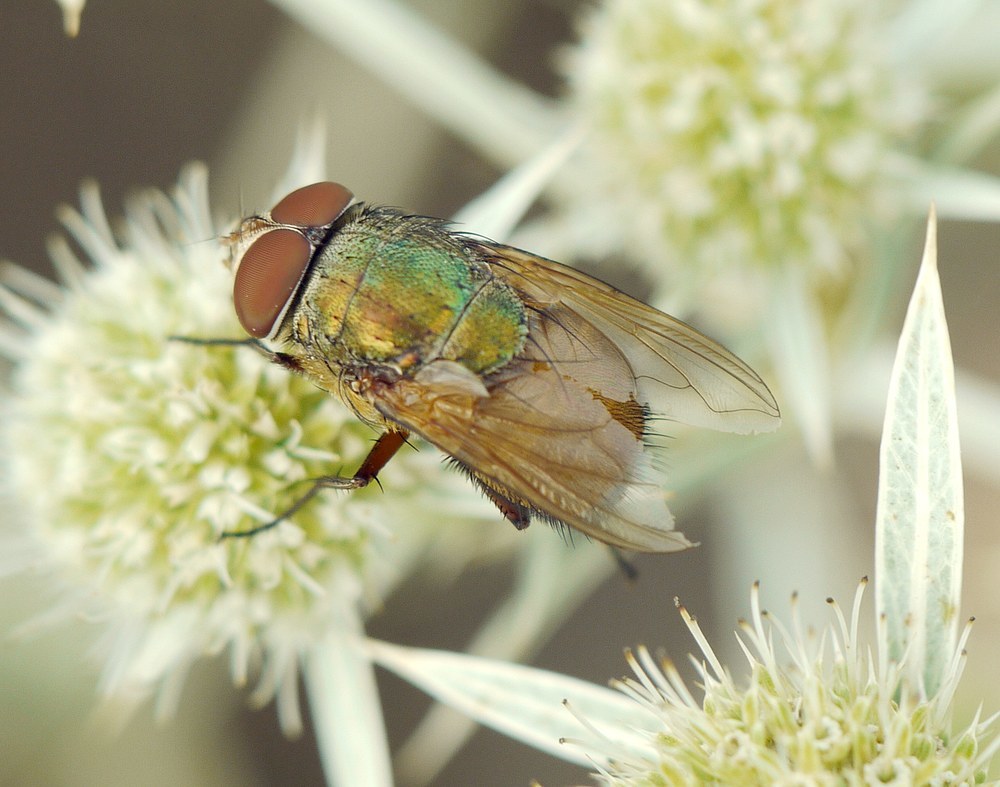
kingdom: Animalia
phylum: Arthropoda
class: Insecta
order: Diptera
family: Calliphoridae
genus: Rhyncomya
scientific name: Rhyncomya speciosa
